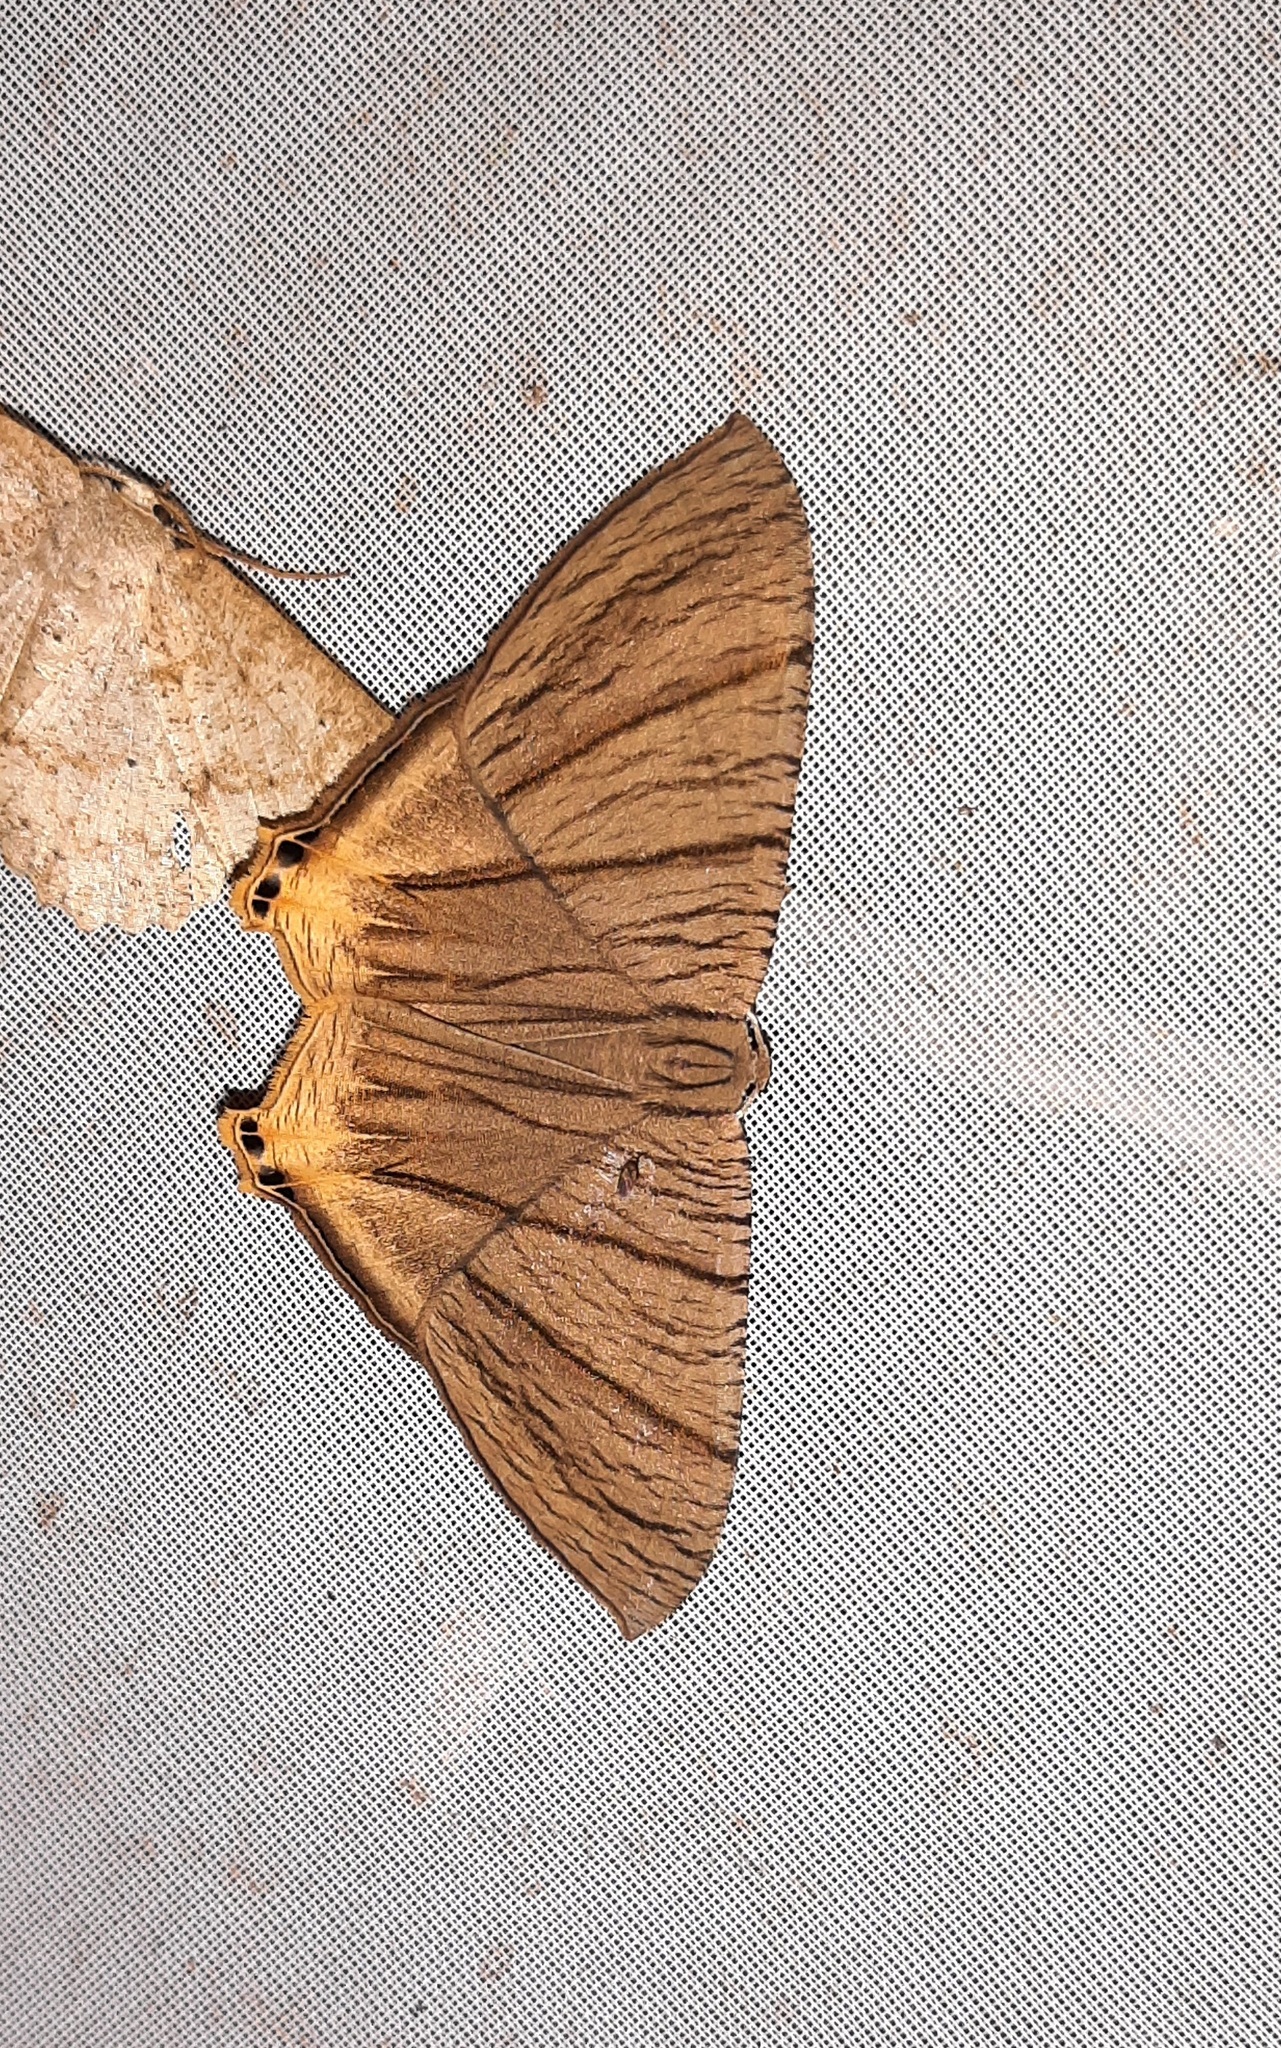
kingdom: Animalia
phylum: Arthropoda
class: Insecta
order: Lepidoptera
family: Uraniidae
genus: Meleaba
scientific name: Meleaba theclaria
